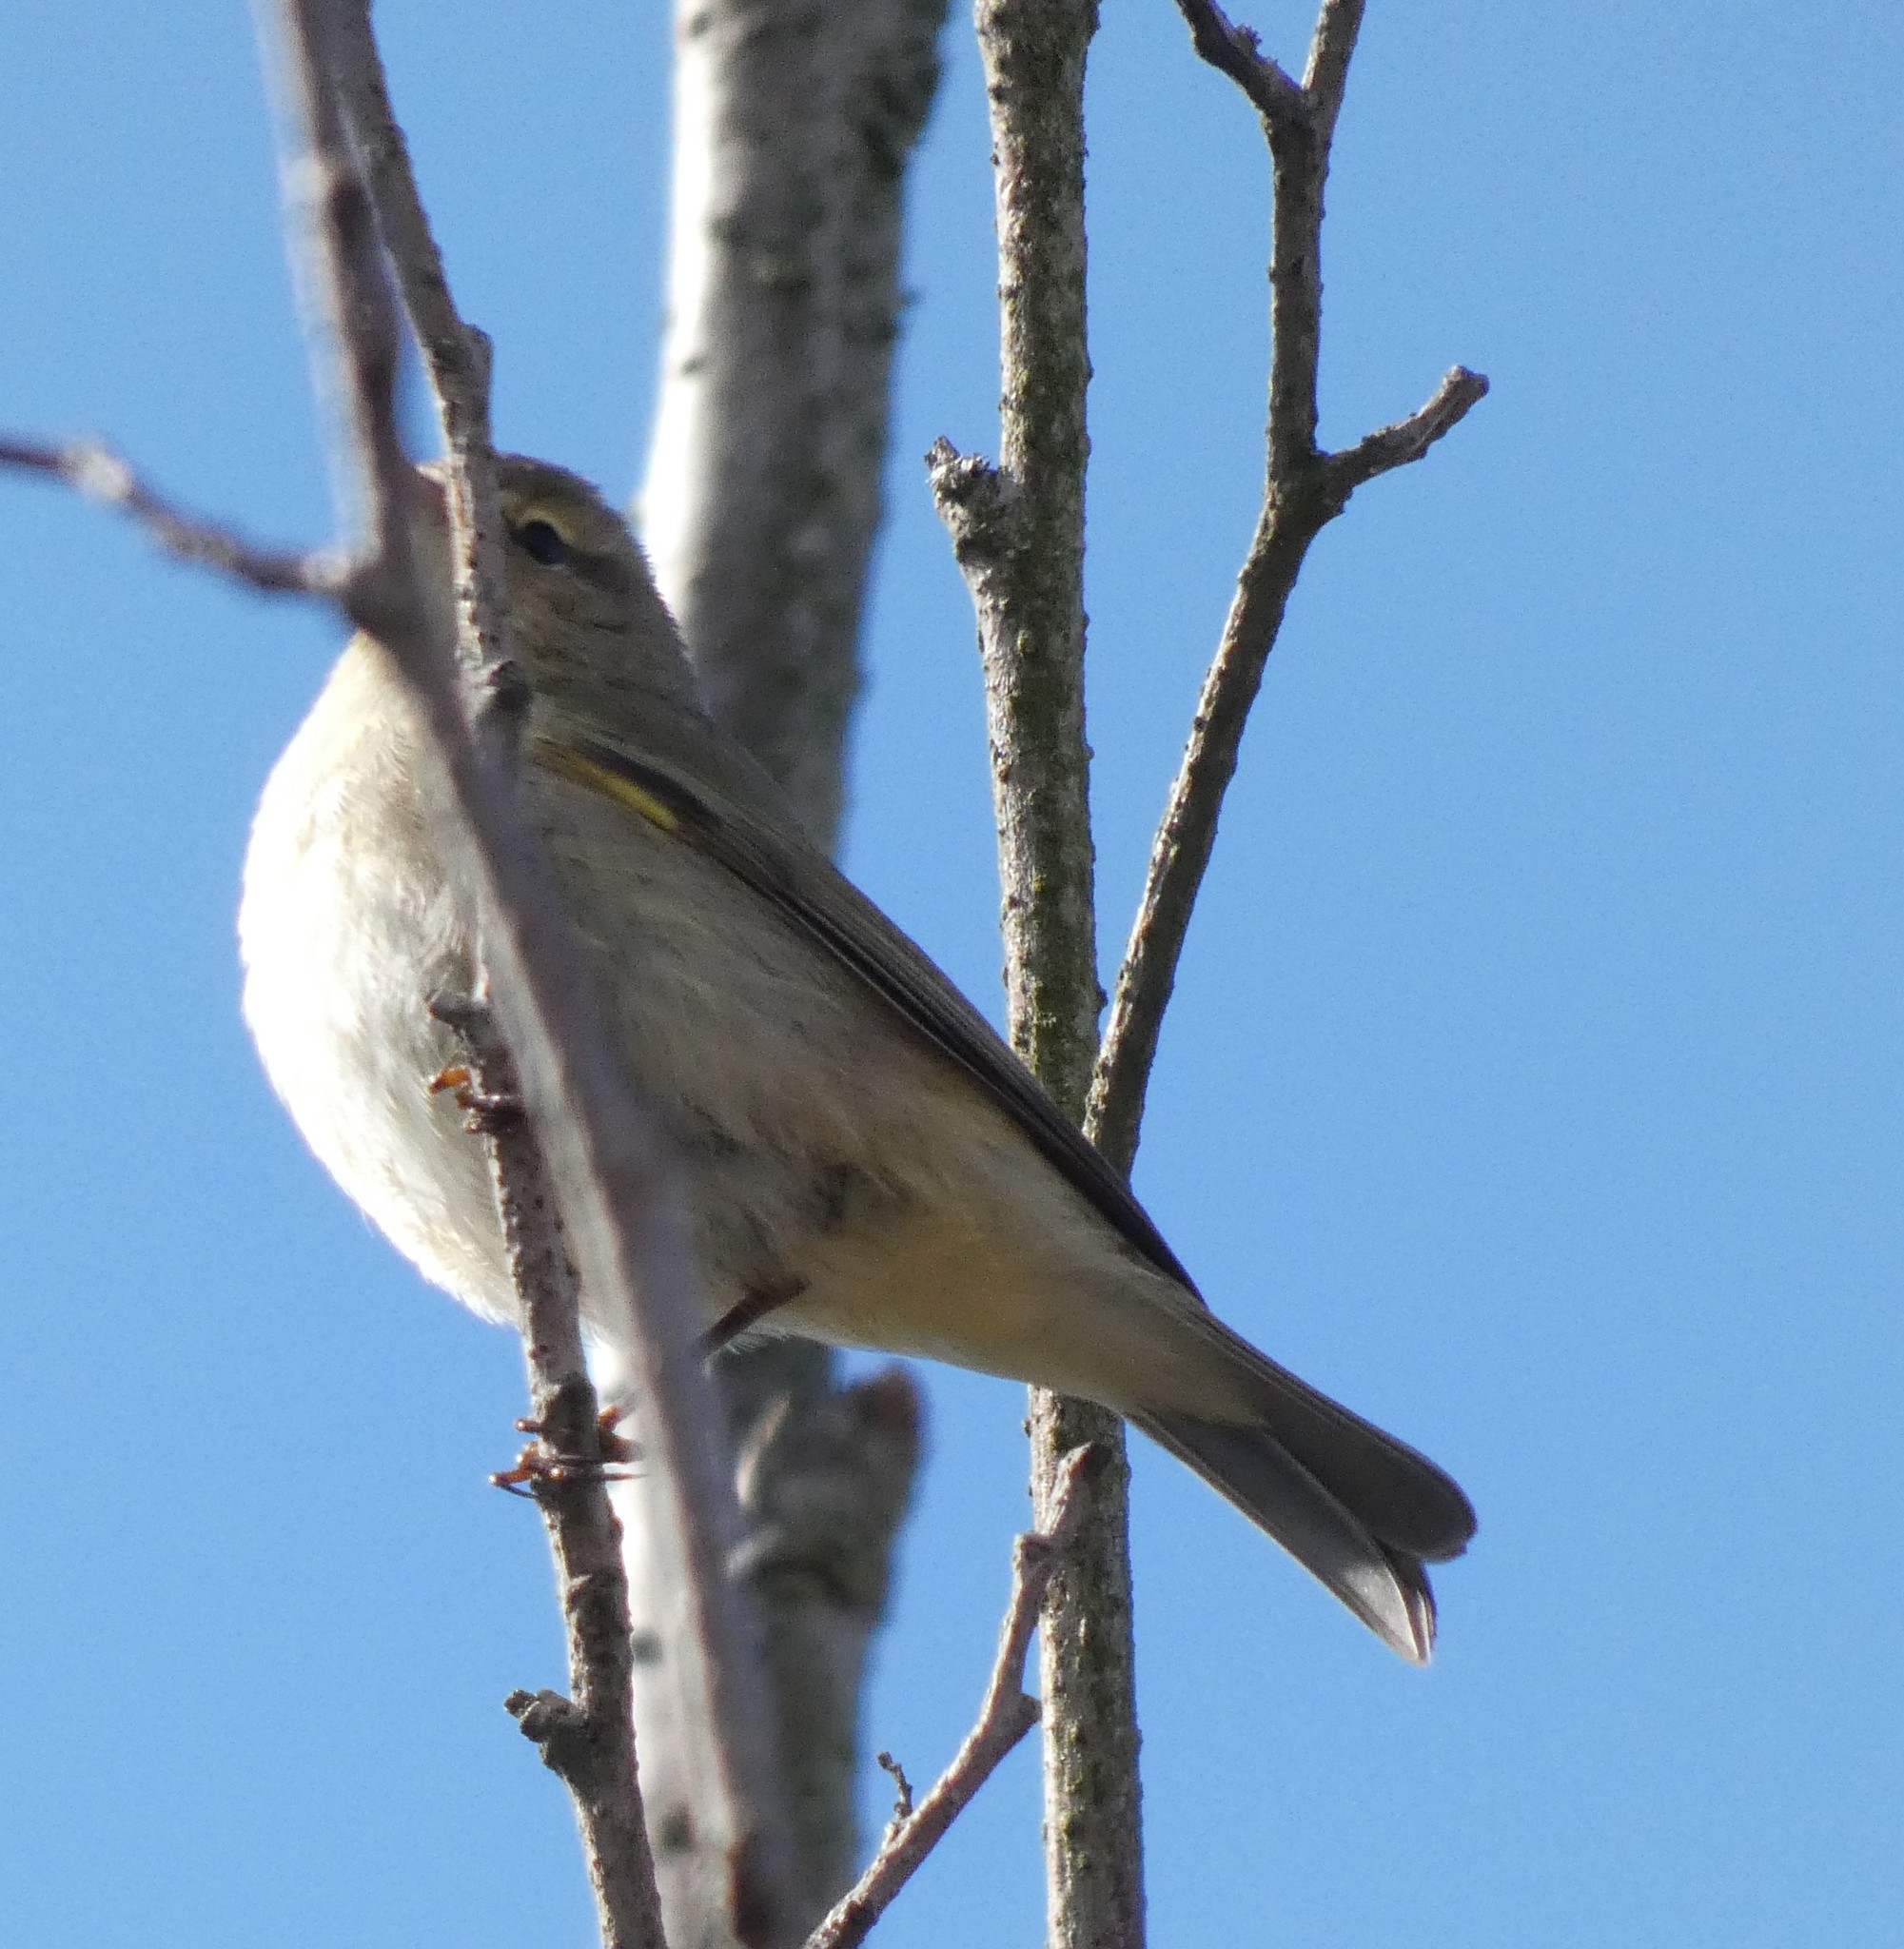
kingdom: Animalia
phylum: Chordata
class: Aves
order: Passeriformes
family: Phylloscopidae
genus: Phylloscopus
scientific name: Phylloscopus collybita
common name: Common chiffchaff
